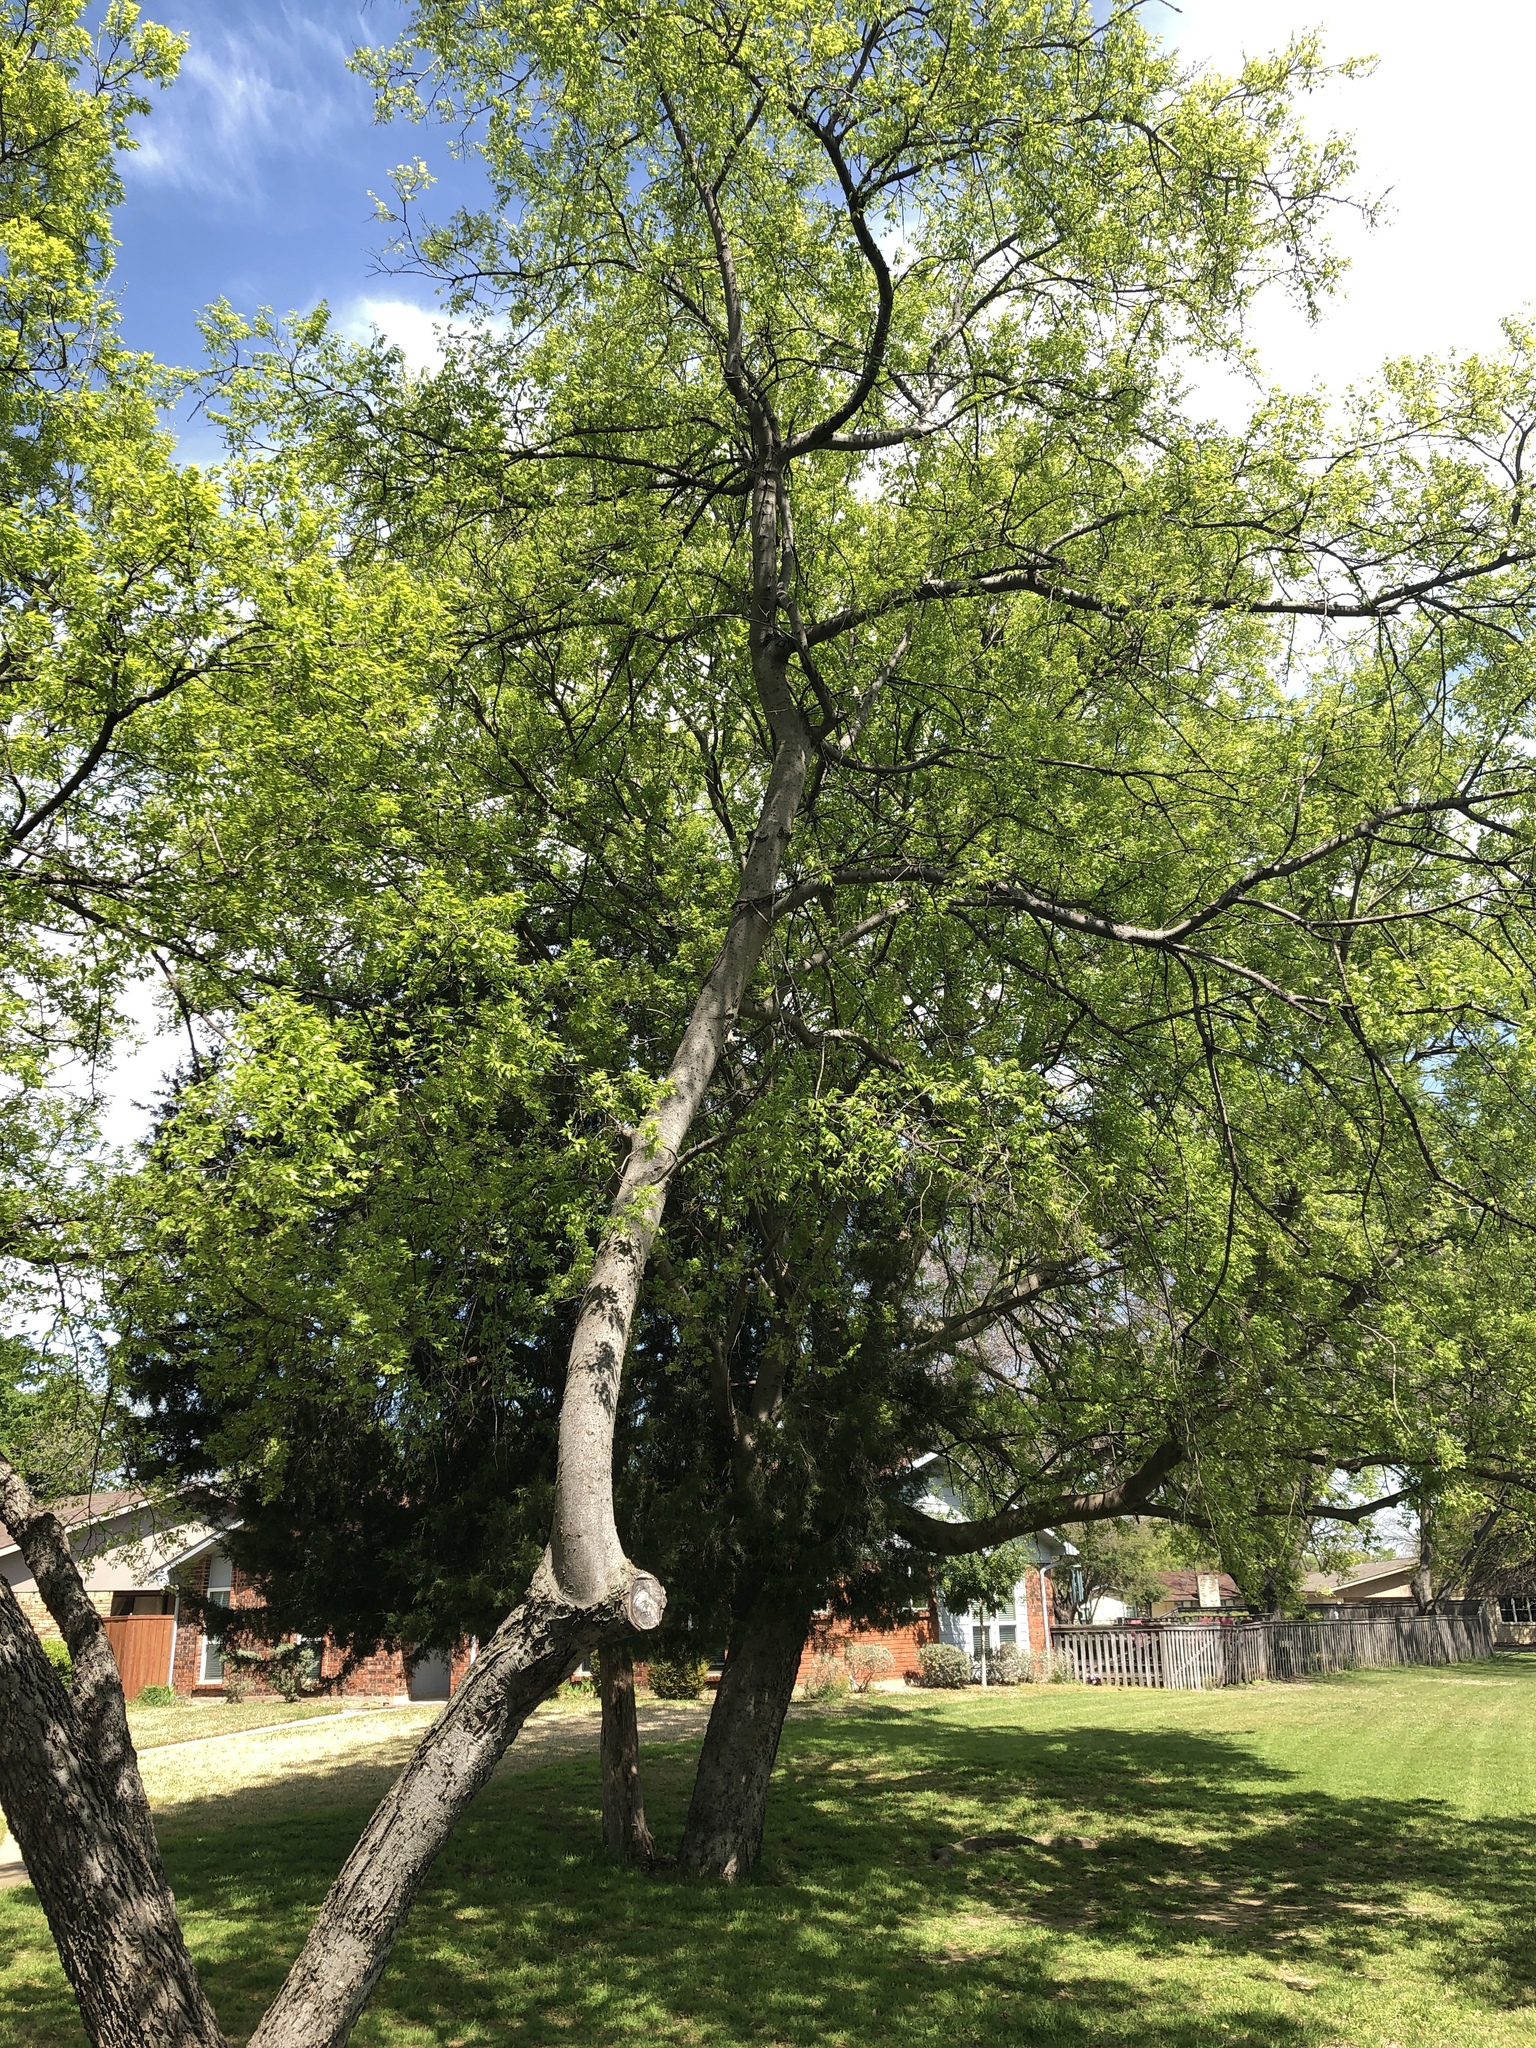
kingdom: Plantae
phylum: Tracheophyta
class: Magnoliopsida
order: Rosales
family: Cannabaceae
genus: Celtis
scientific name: Celtis laevigata
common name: Sugarberry
